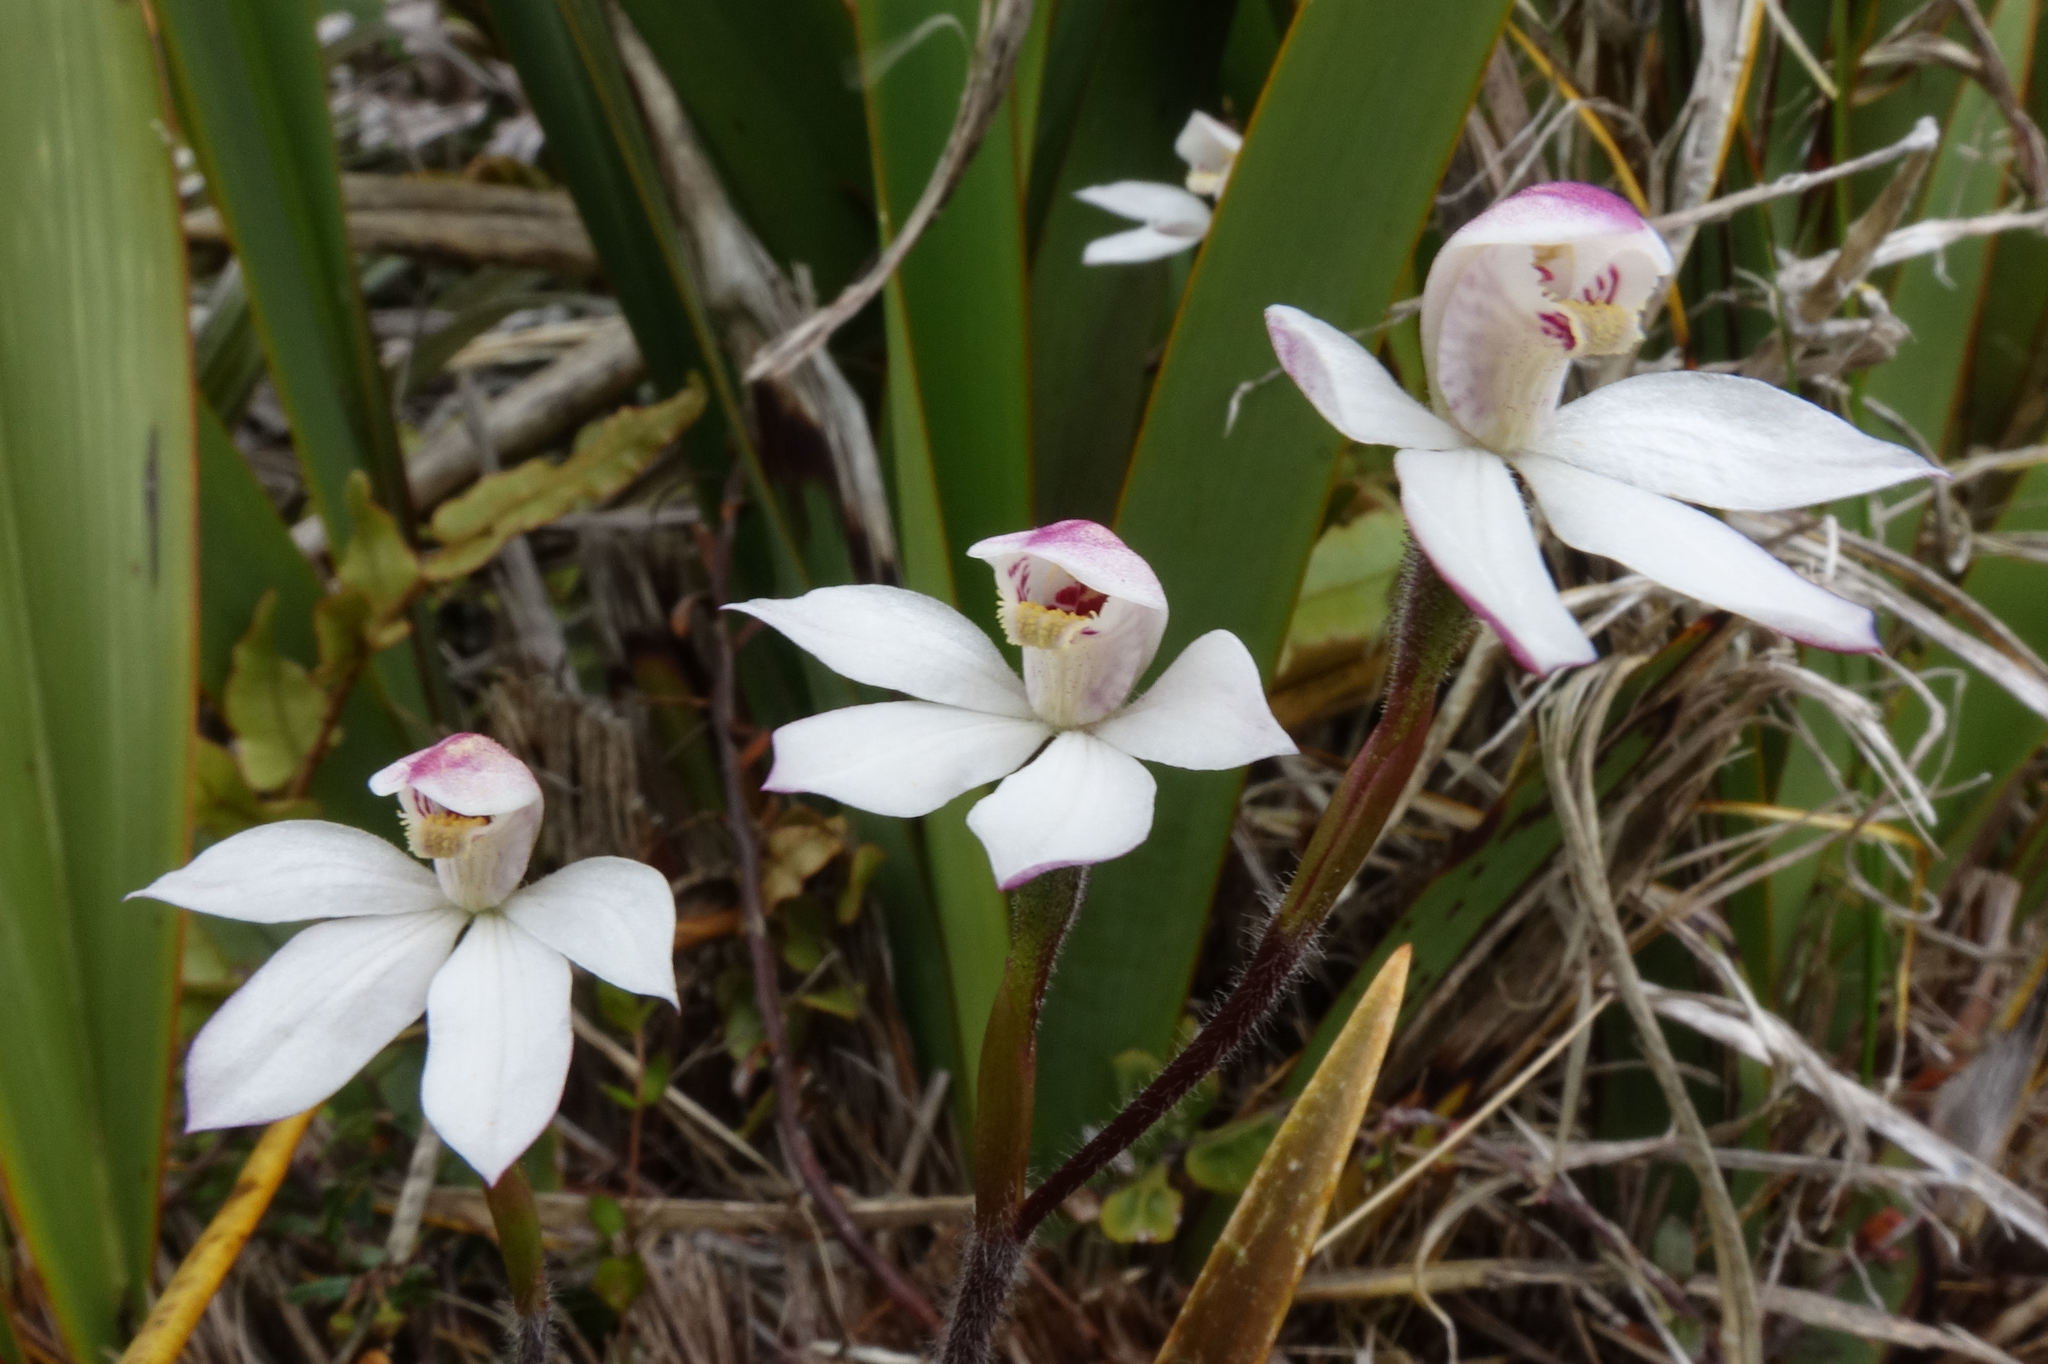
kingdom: Plantae
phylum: Tracheophyta
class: Liliopsida
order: Asparagales
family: Orchidaceae
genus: Caladenia
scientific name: Caladenia lyallii
